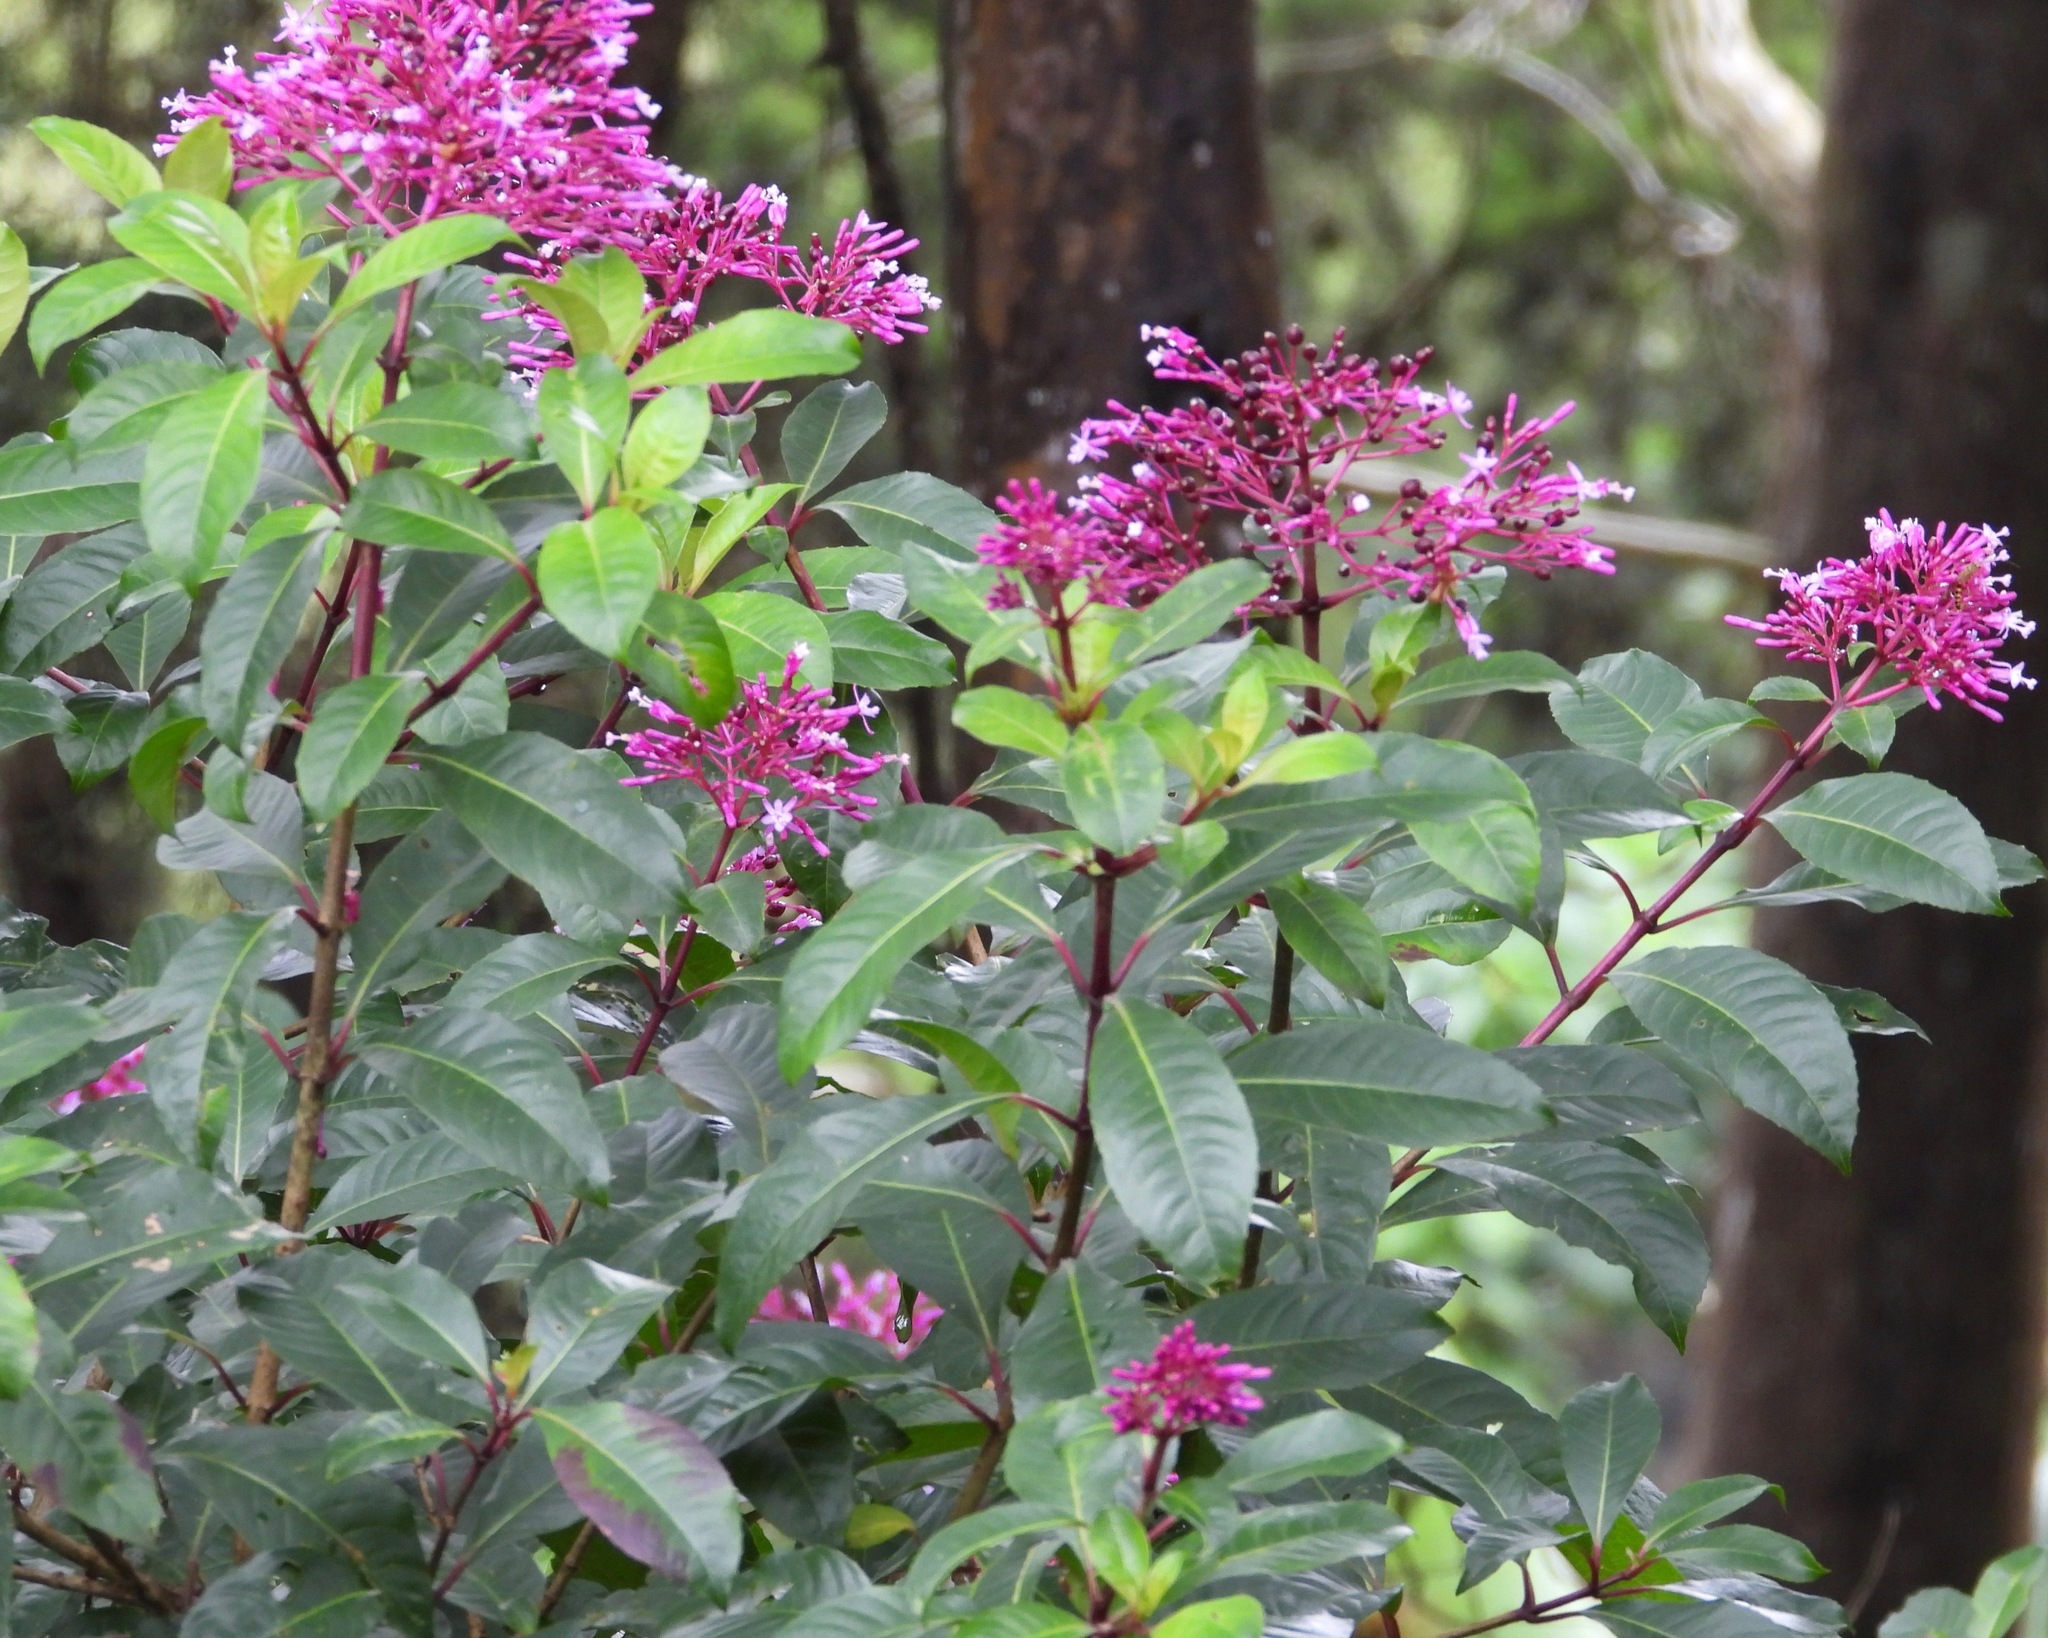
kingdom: Plantae
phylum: Tracheophyta
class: Magnoliopsida
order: Myrtales
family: Onagraceae
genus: Fuchsia
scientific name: Fuchsia paniculata
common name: Shrubby fuchsia
